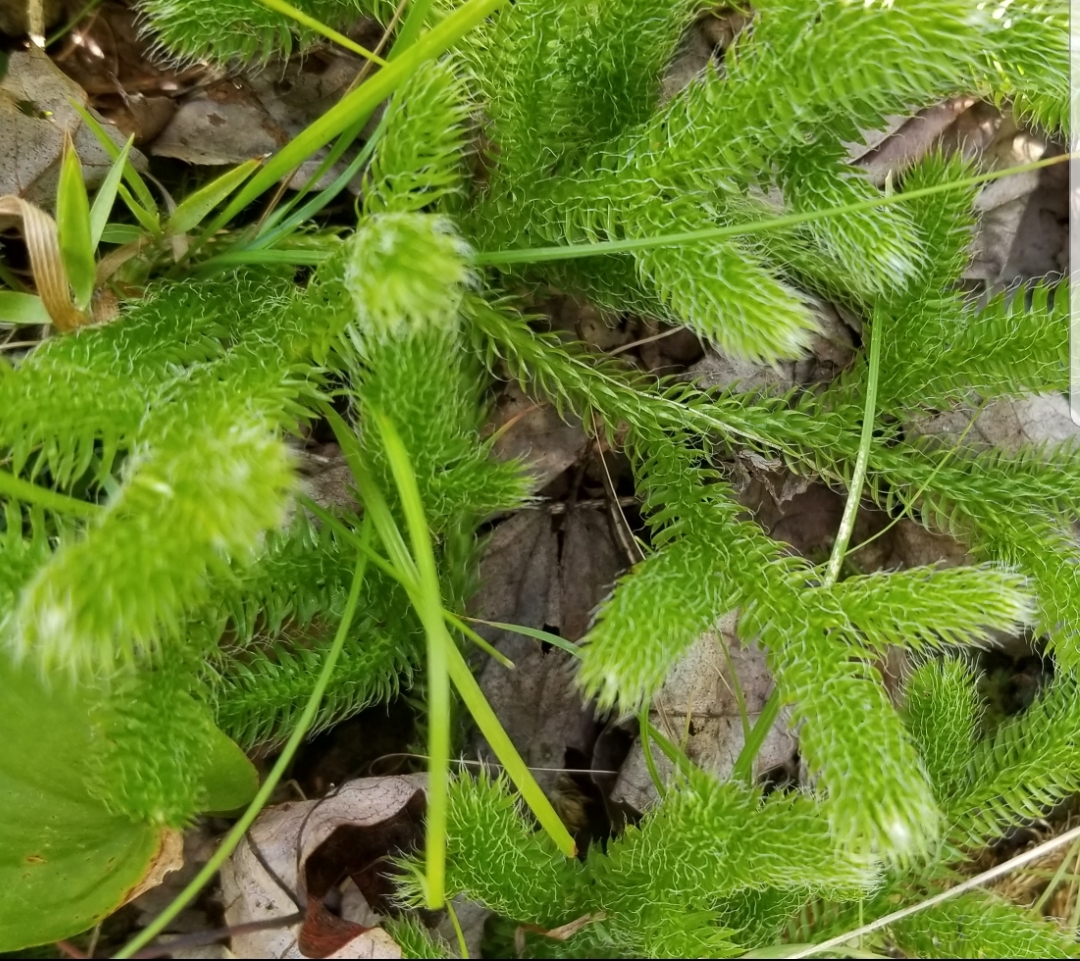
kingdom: Plantae
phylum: Tracheophyta
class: Lycopodiopsida
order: Lycopodiales
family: Lycopodiaceae
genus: Lycopodium
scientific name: Lycopodium clavatum
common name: Stag's-horn clubmoss
